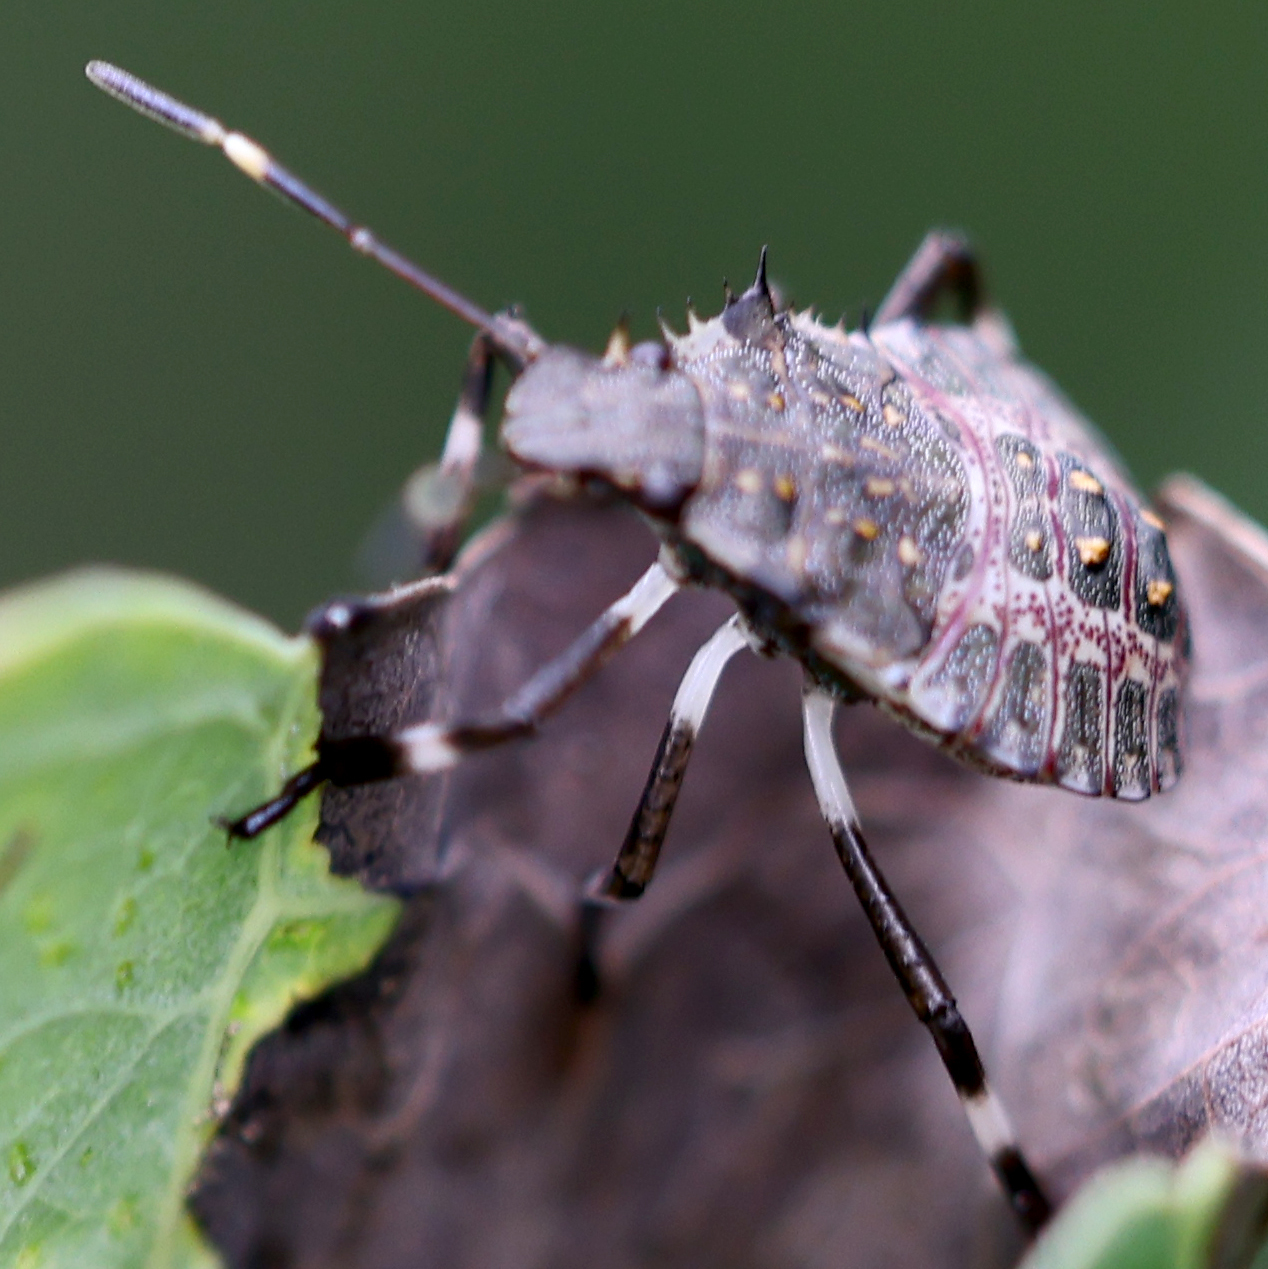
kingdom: Animalia
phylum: Arthropoda
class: Insecta
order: Hemiptera
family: Pentatomidae
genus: Halyomorpha
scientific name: Halyomorpha halys
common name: Brown marmorated stink bug
